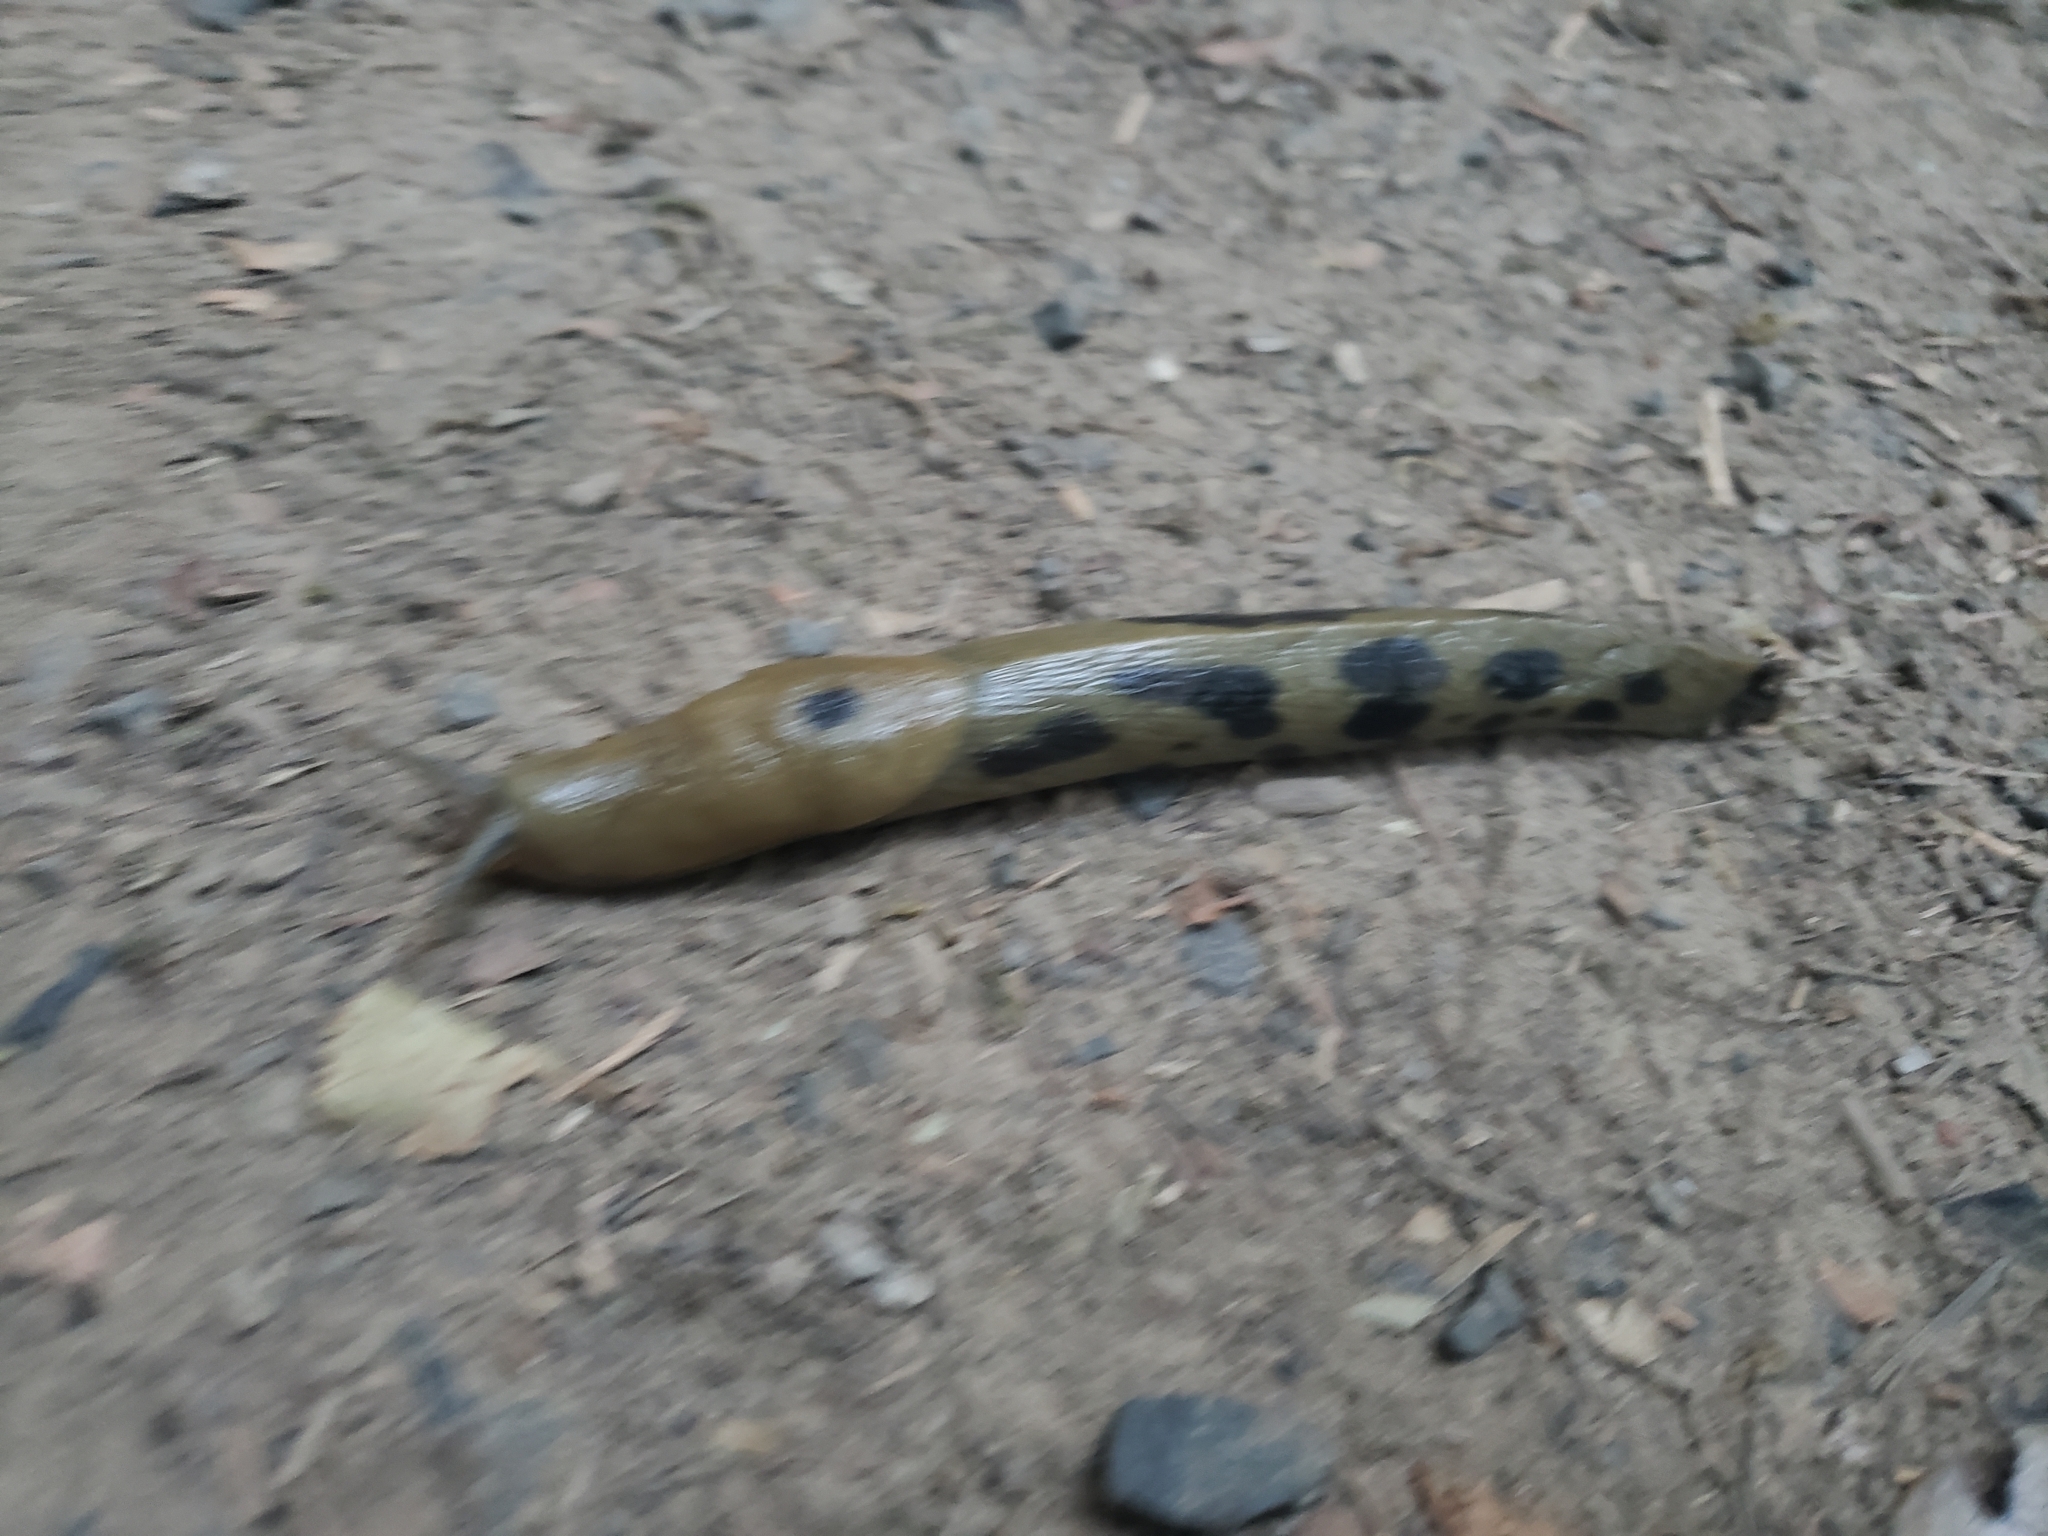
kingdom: Animalia
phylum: Mollusca
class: Gastropoda
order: Stylommatophora
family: Ariolimacidae
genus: Ariolimax
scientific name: Ariolimax columbianus
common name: Pacific banana slug
